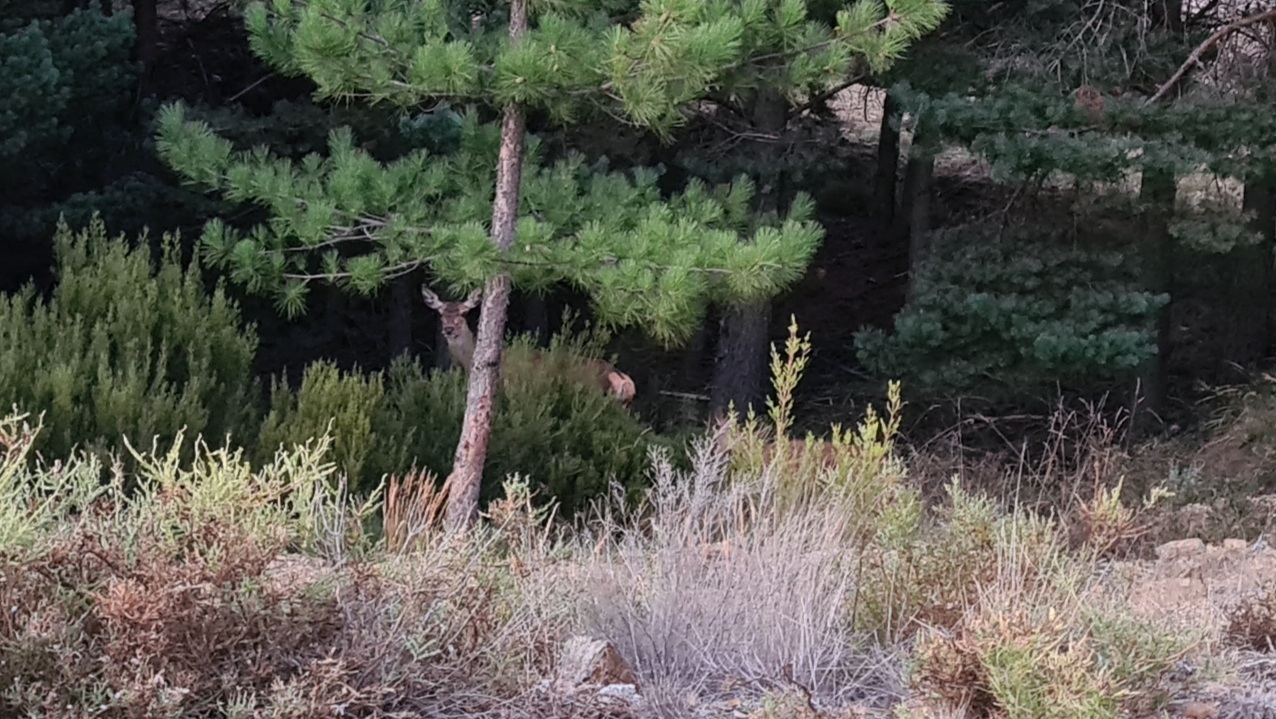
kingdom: Animalia
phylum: Chordata
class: Mammalia
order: Artiodactyla
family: Cervidae
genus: Cervus
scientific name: Cervus elaphus
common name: Red deer
